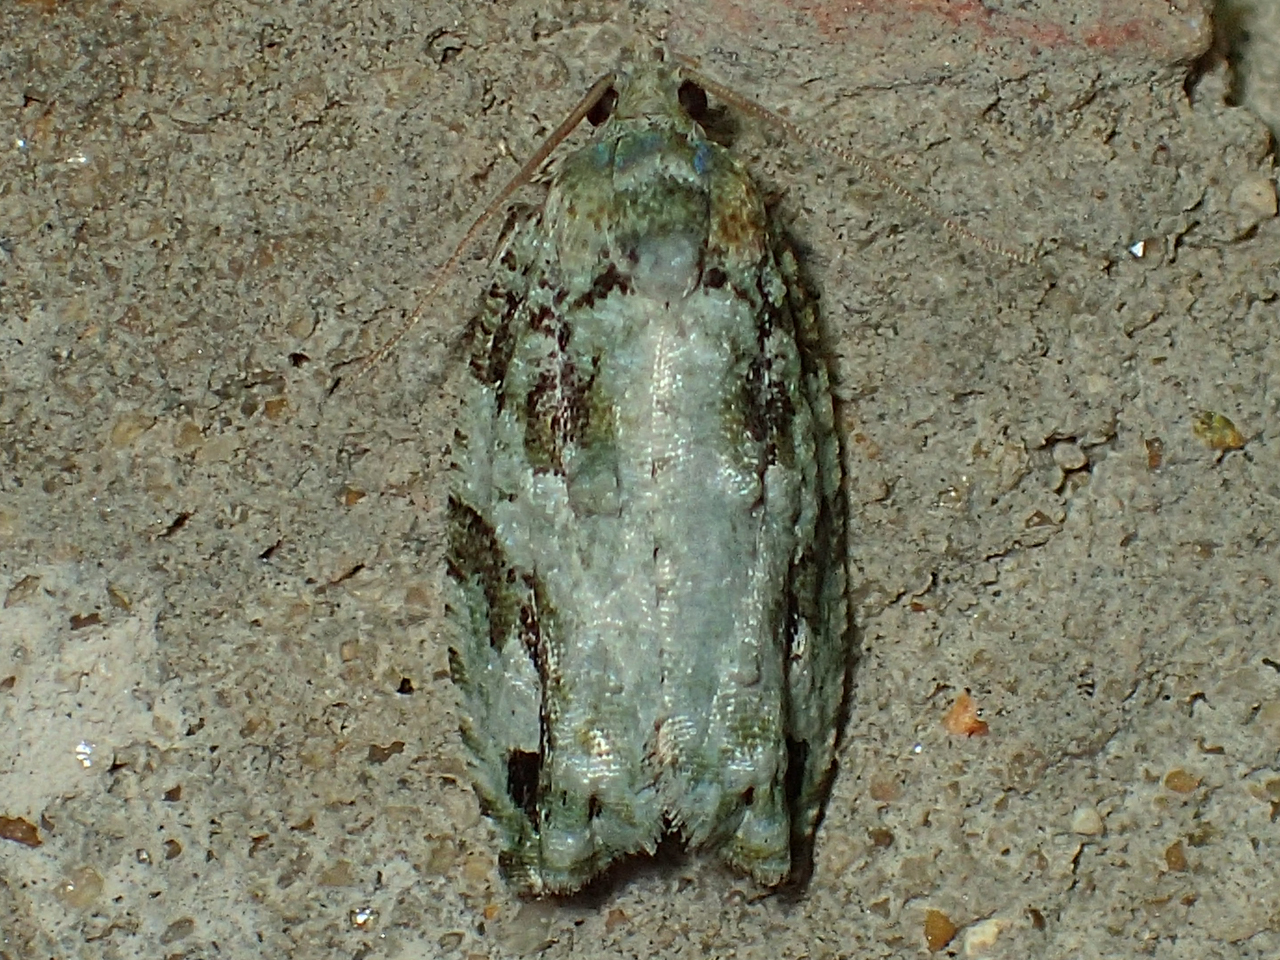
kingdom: Animalia
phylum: Arthropoda
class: Insecta
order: Lepidoptera
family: Tortricidae
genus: Proteoteras
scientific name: Proteoteras moffatiana
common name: Maple bud borer moth
